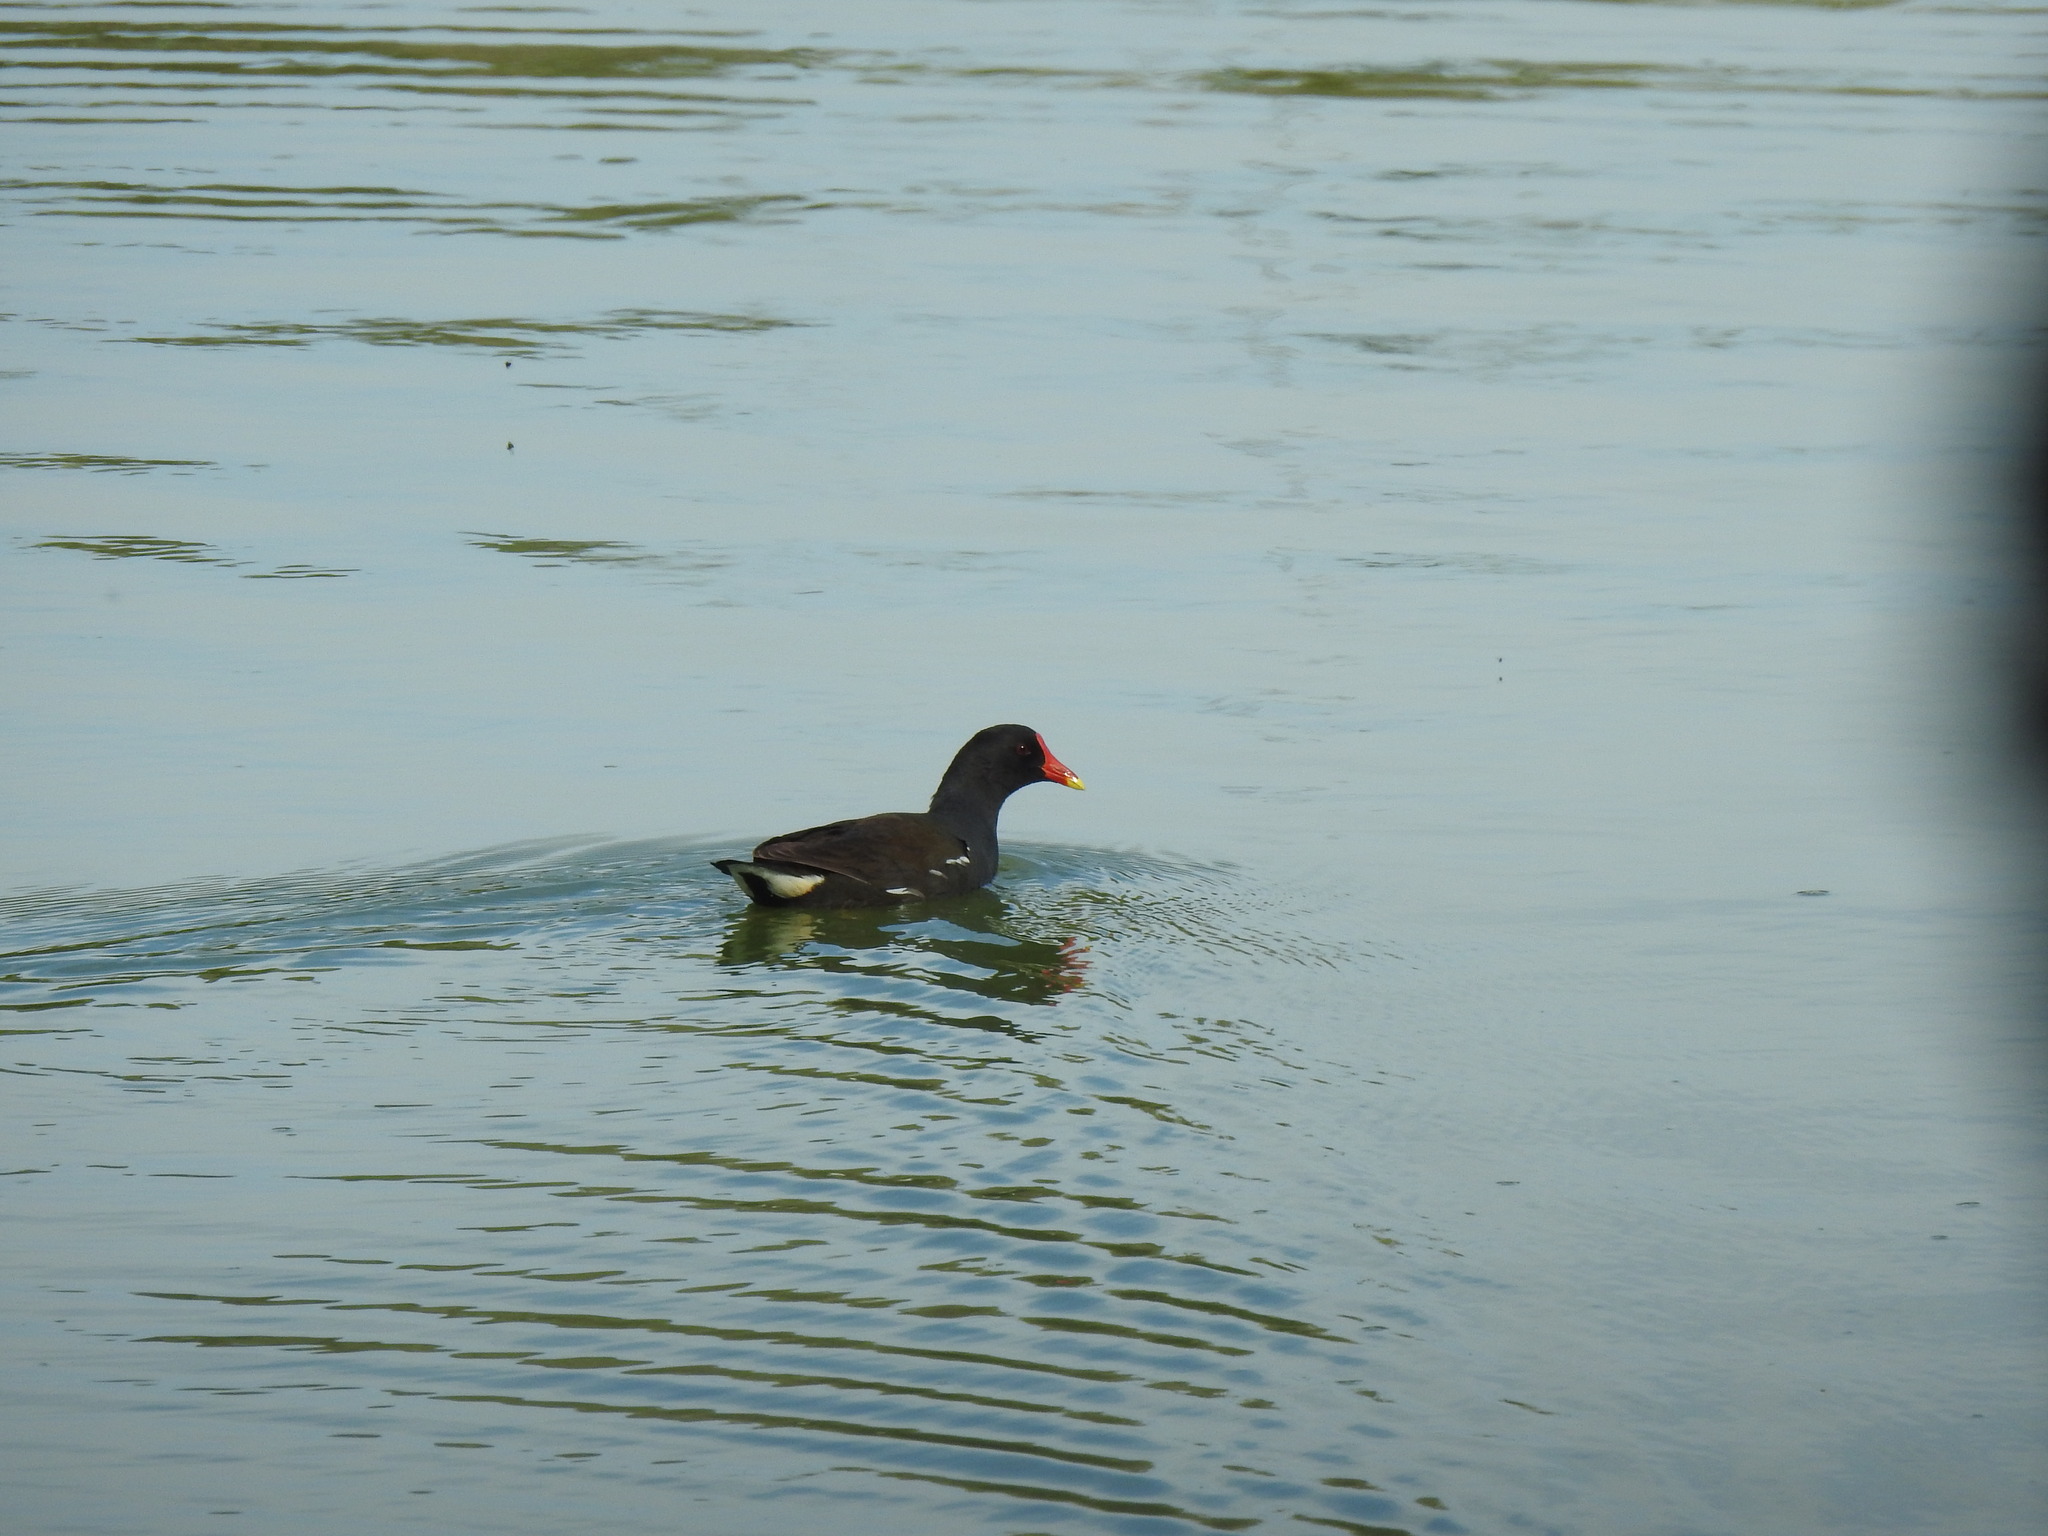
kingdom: Animalia
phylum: Chordata
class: Aves
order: Gruiformes
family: Rallidae
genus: Gallinula
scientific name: Gallinula chloropus
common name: Common moorhen
